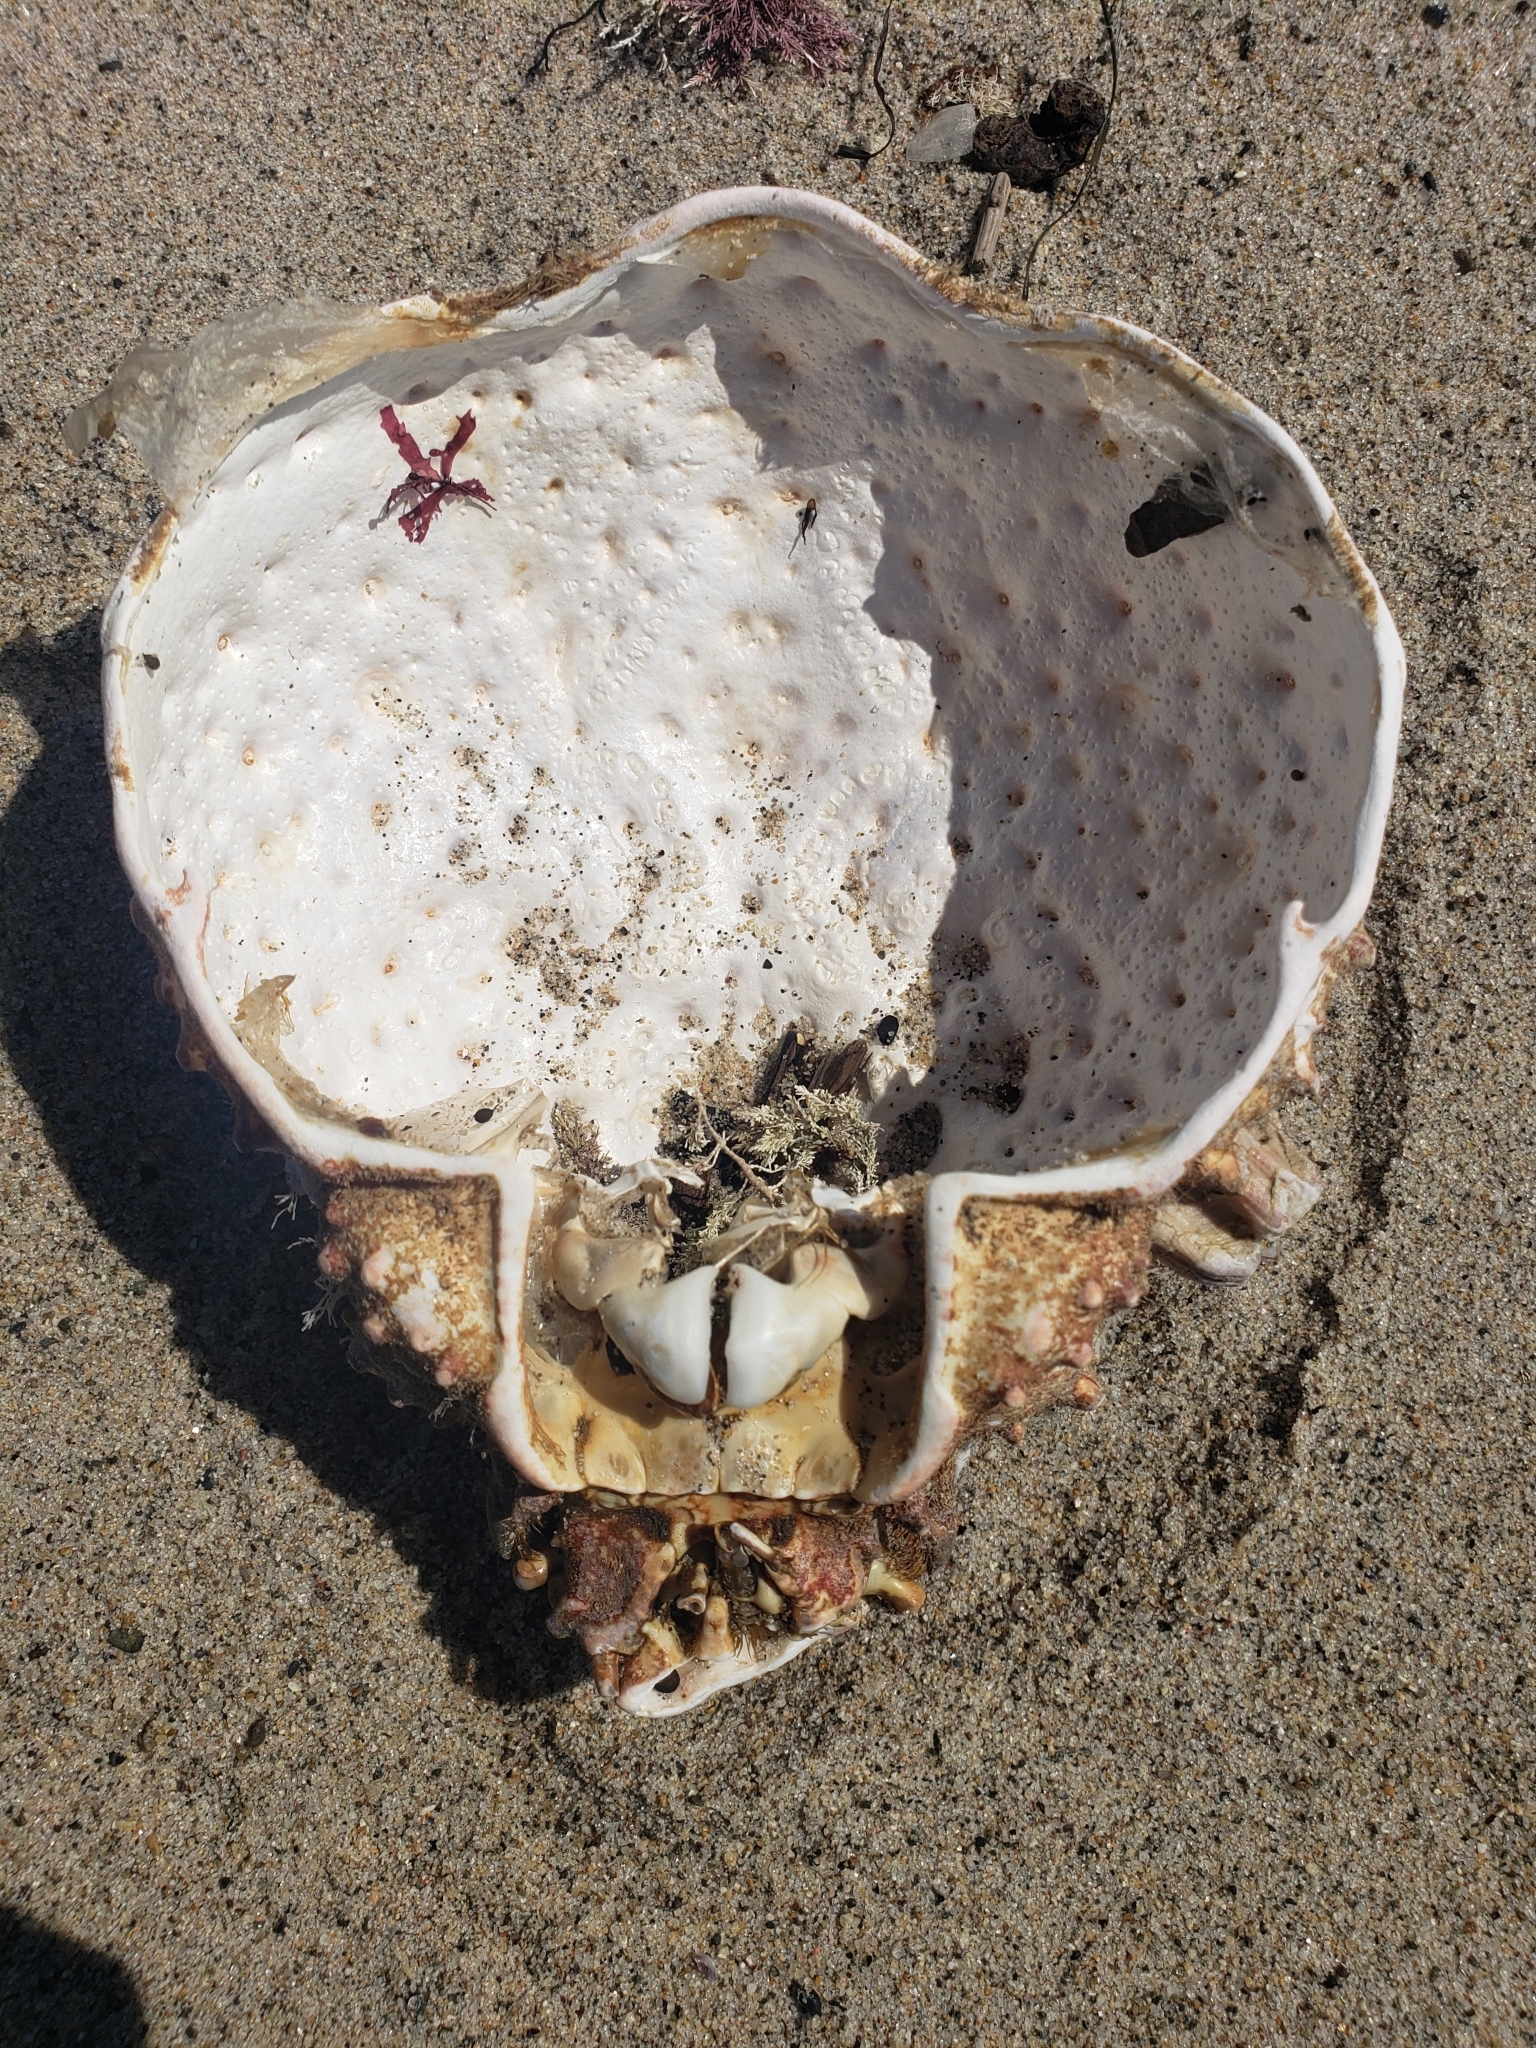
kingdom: Animalia
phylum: Arthropoda
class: Malacostraca
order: Decapoda
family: Epialtidae
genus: Loxorhynchus
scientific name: Loxorhynchus grandis
